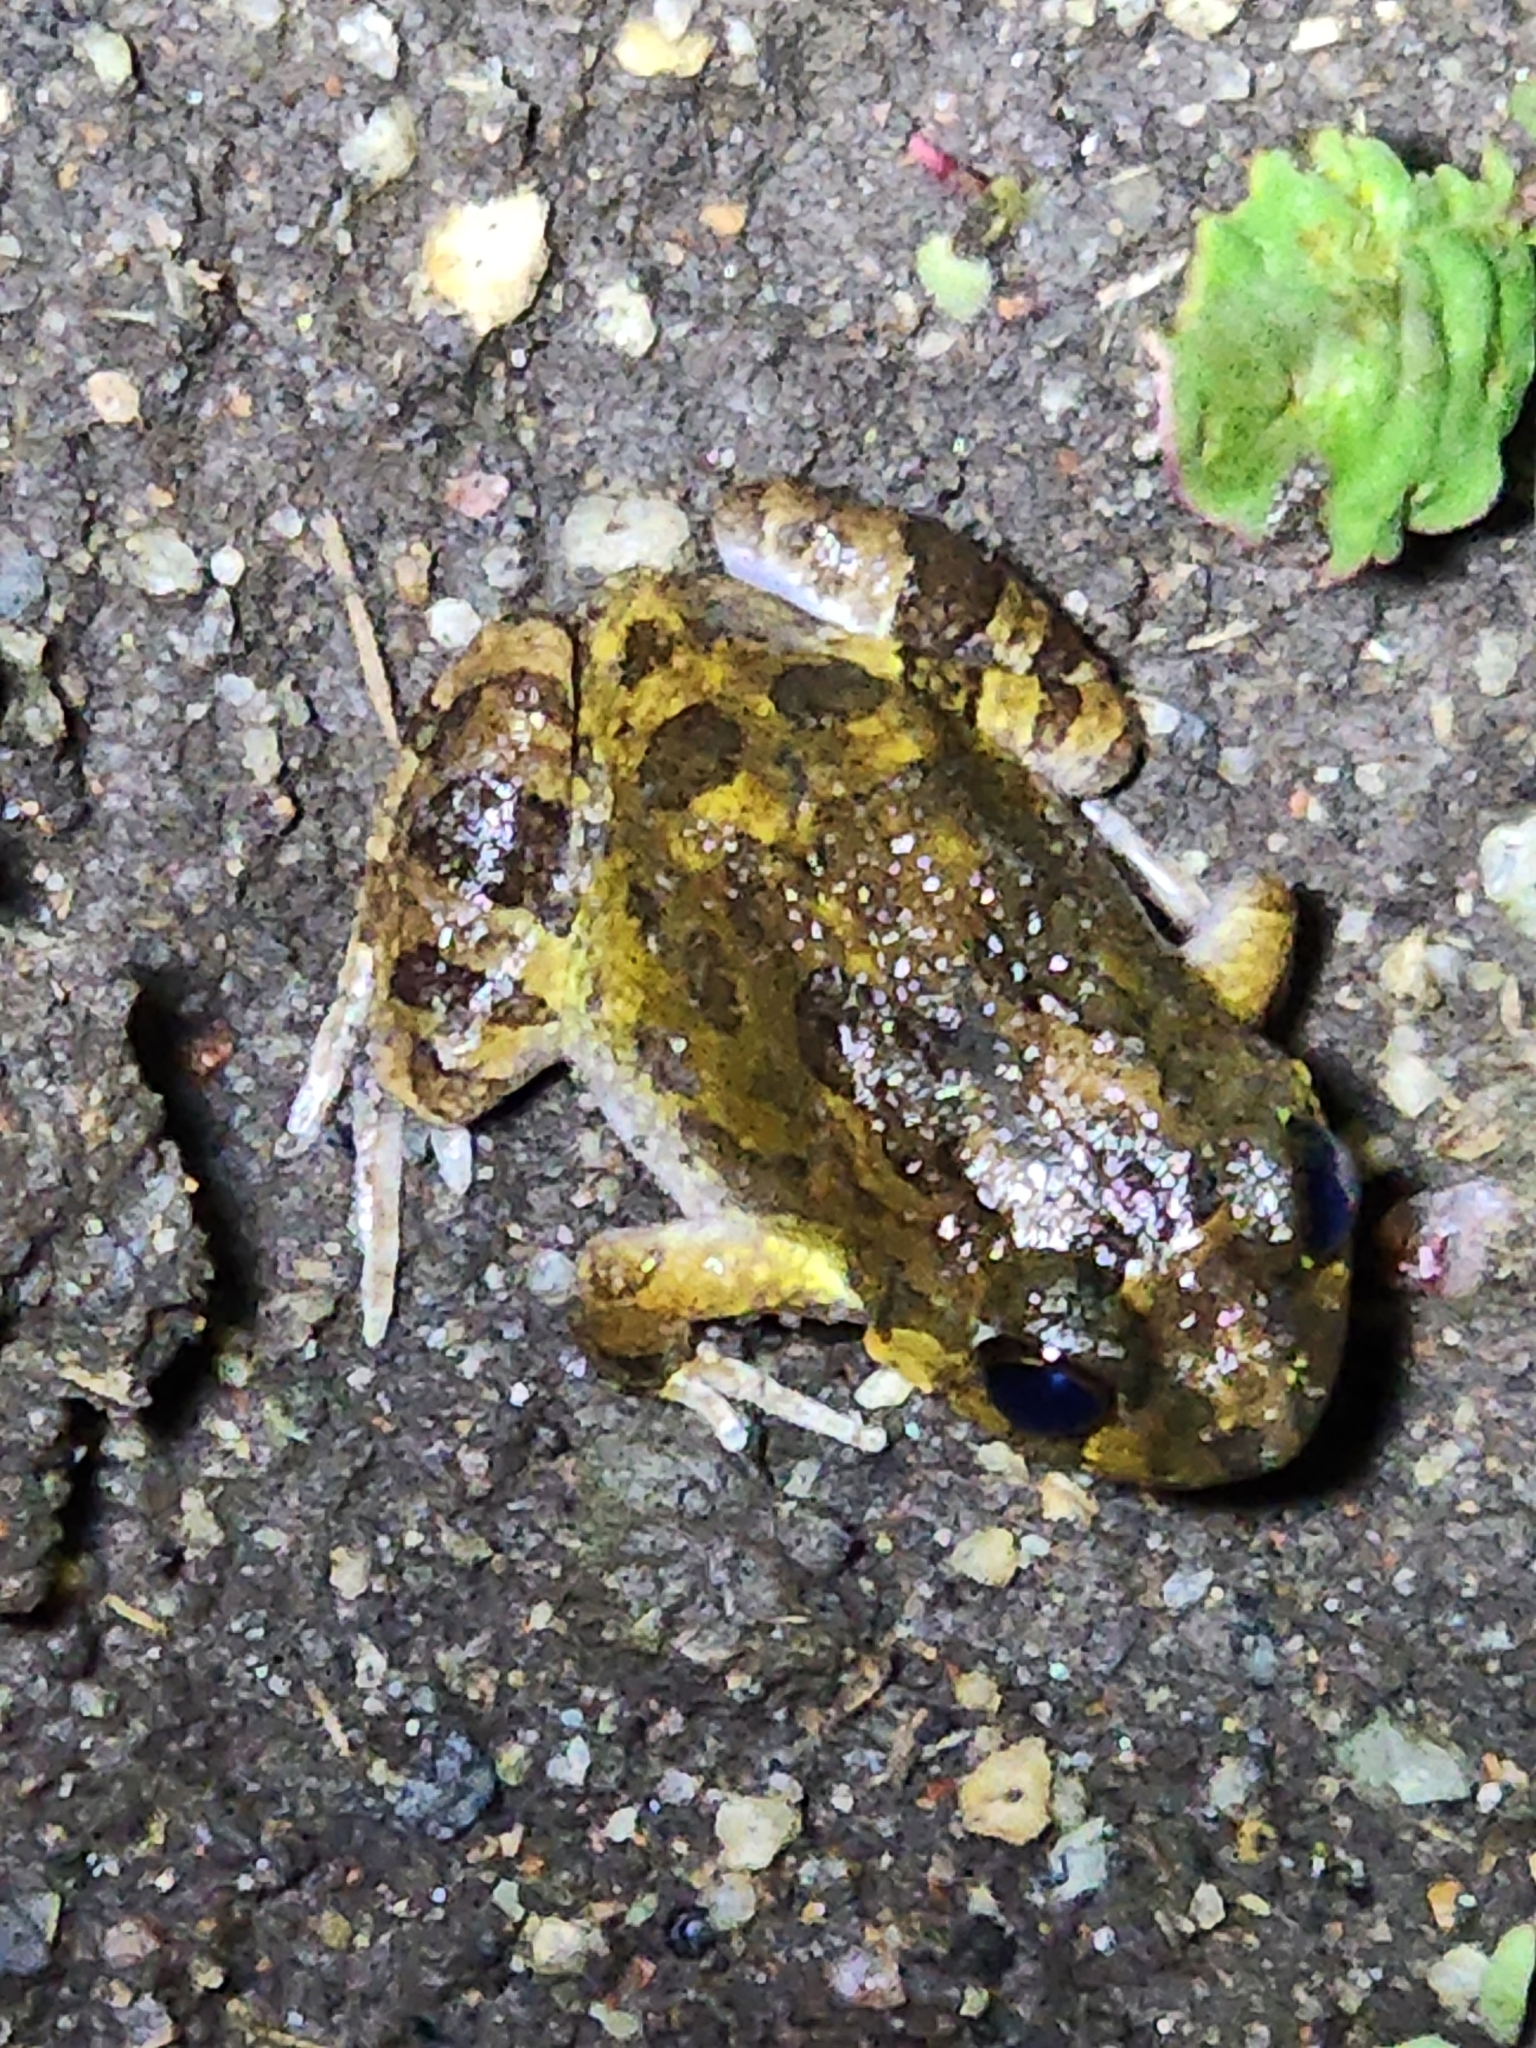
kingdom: Animalia
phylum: Chordata
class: Amphibia
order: Anura
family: Limnodynastidae
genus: Platyplectrum
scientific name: Platyplectrum ornatum
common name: Ornate burrowing frog
